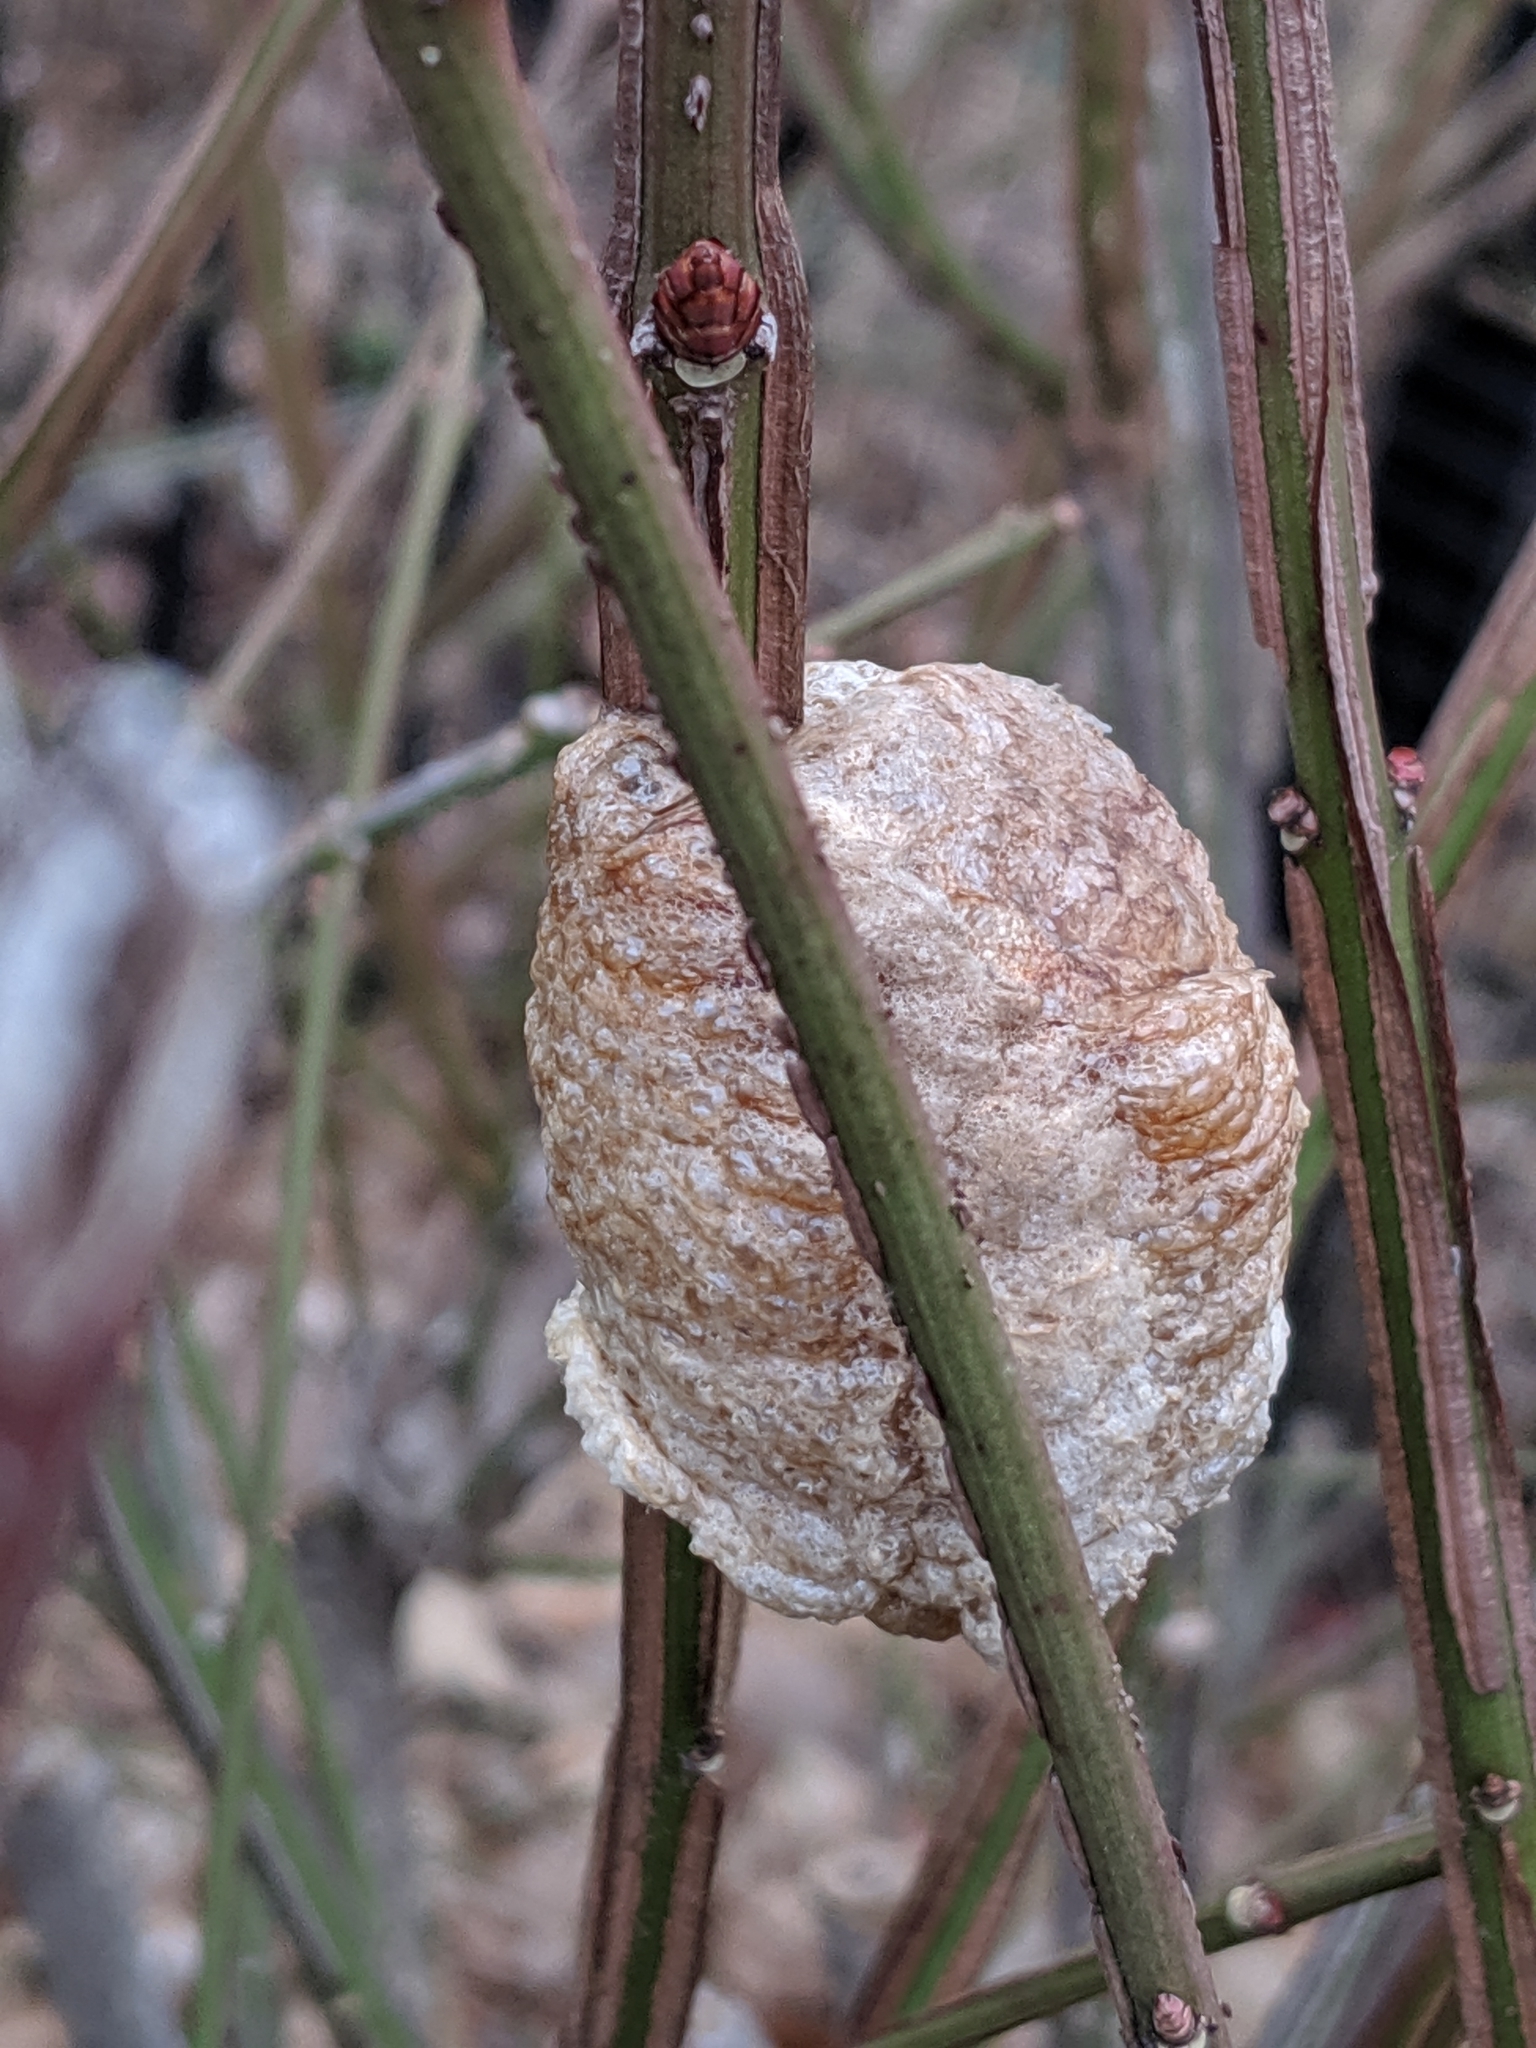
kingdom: Animalia
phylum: Arthropoda
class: Insecta
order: Mantodea
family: Mantidae
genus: Tenodera
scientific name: Tenodera sinensis
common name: Chinese mantis
